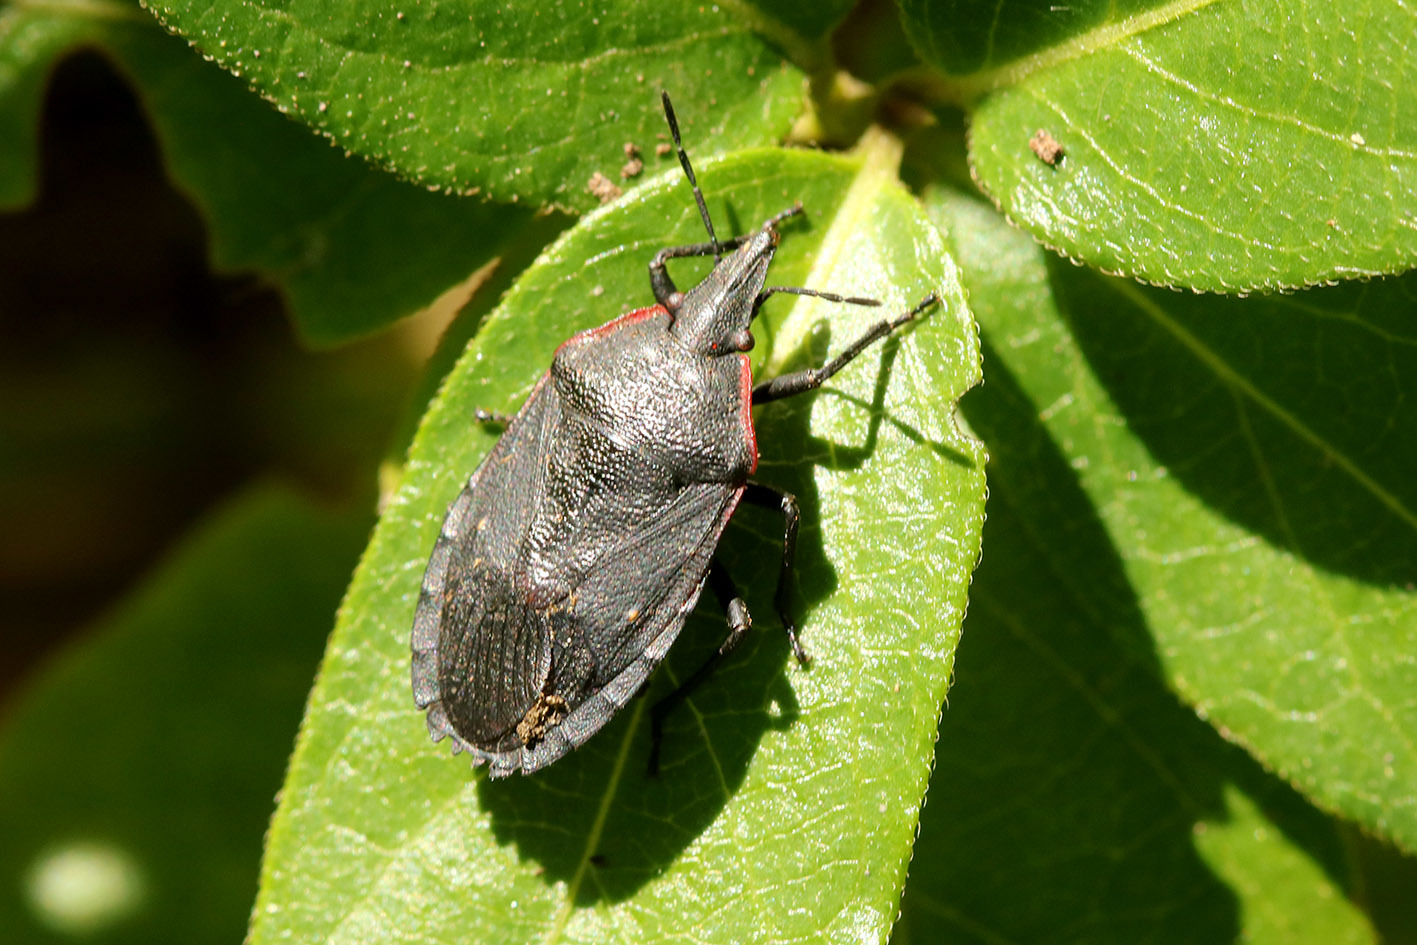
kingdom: Animalia
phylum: Arthropoda
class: Insecta
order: Hemiptera
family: Pentatomidae
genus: Mecocephala
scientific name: Mecocephala bonariensis
